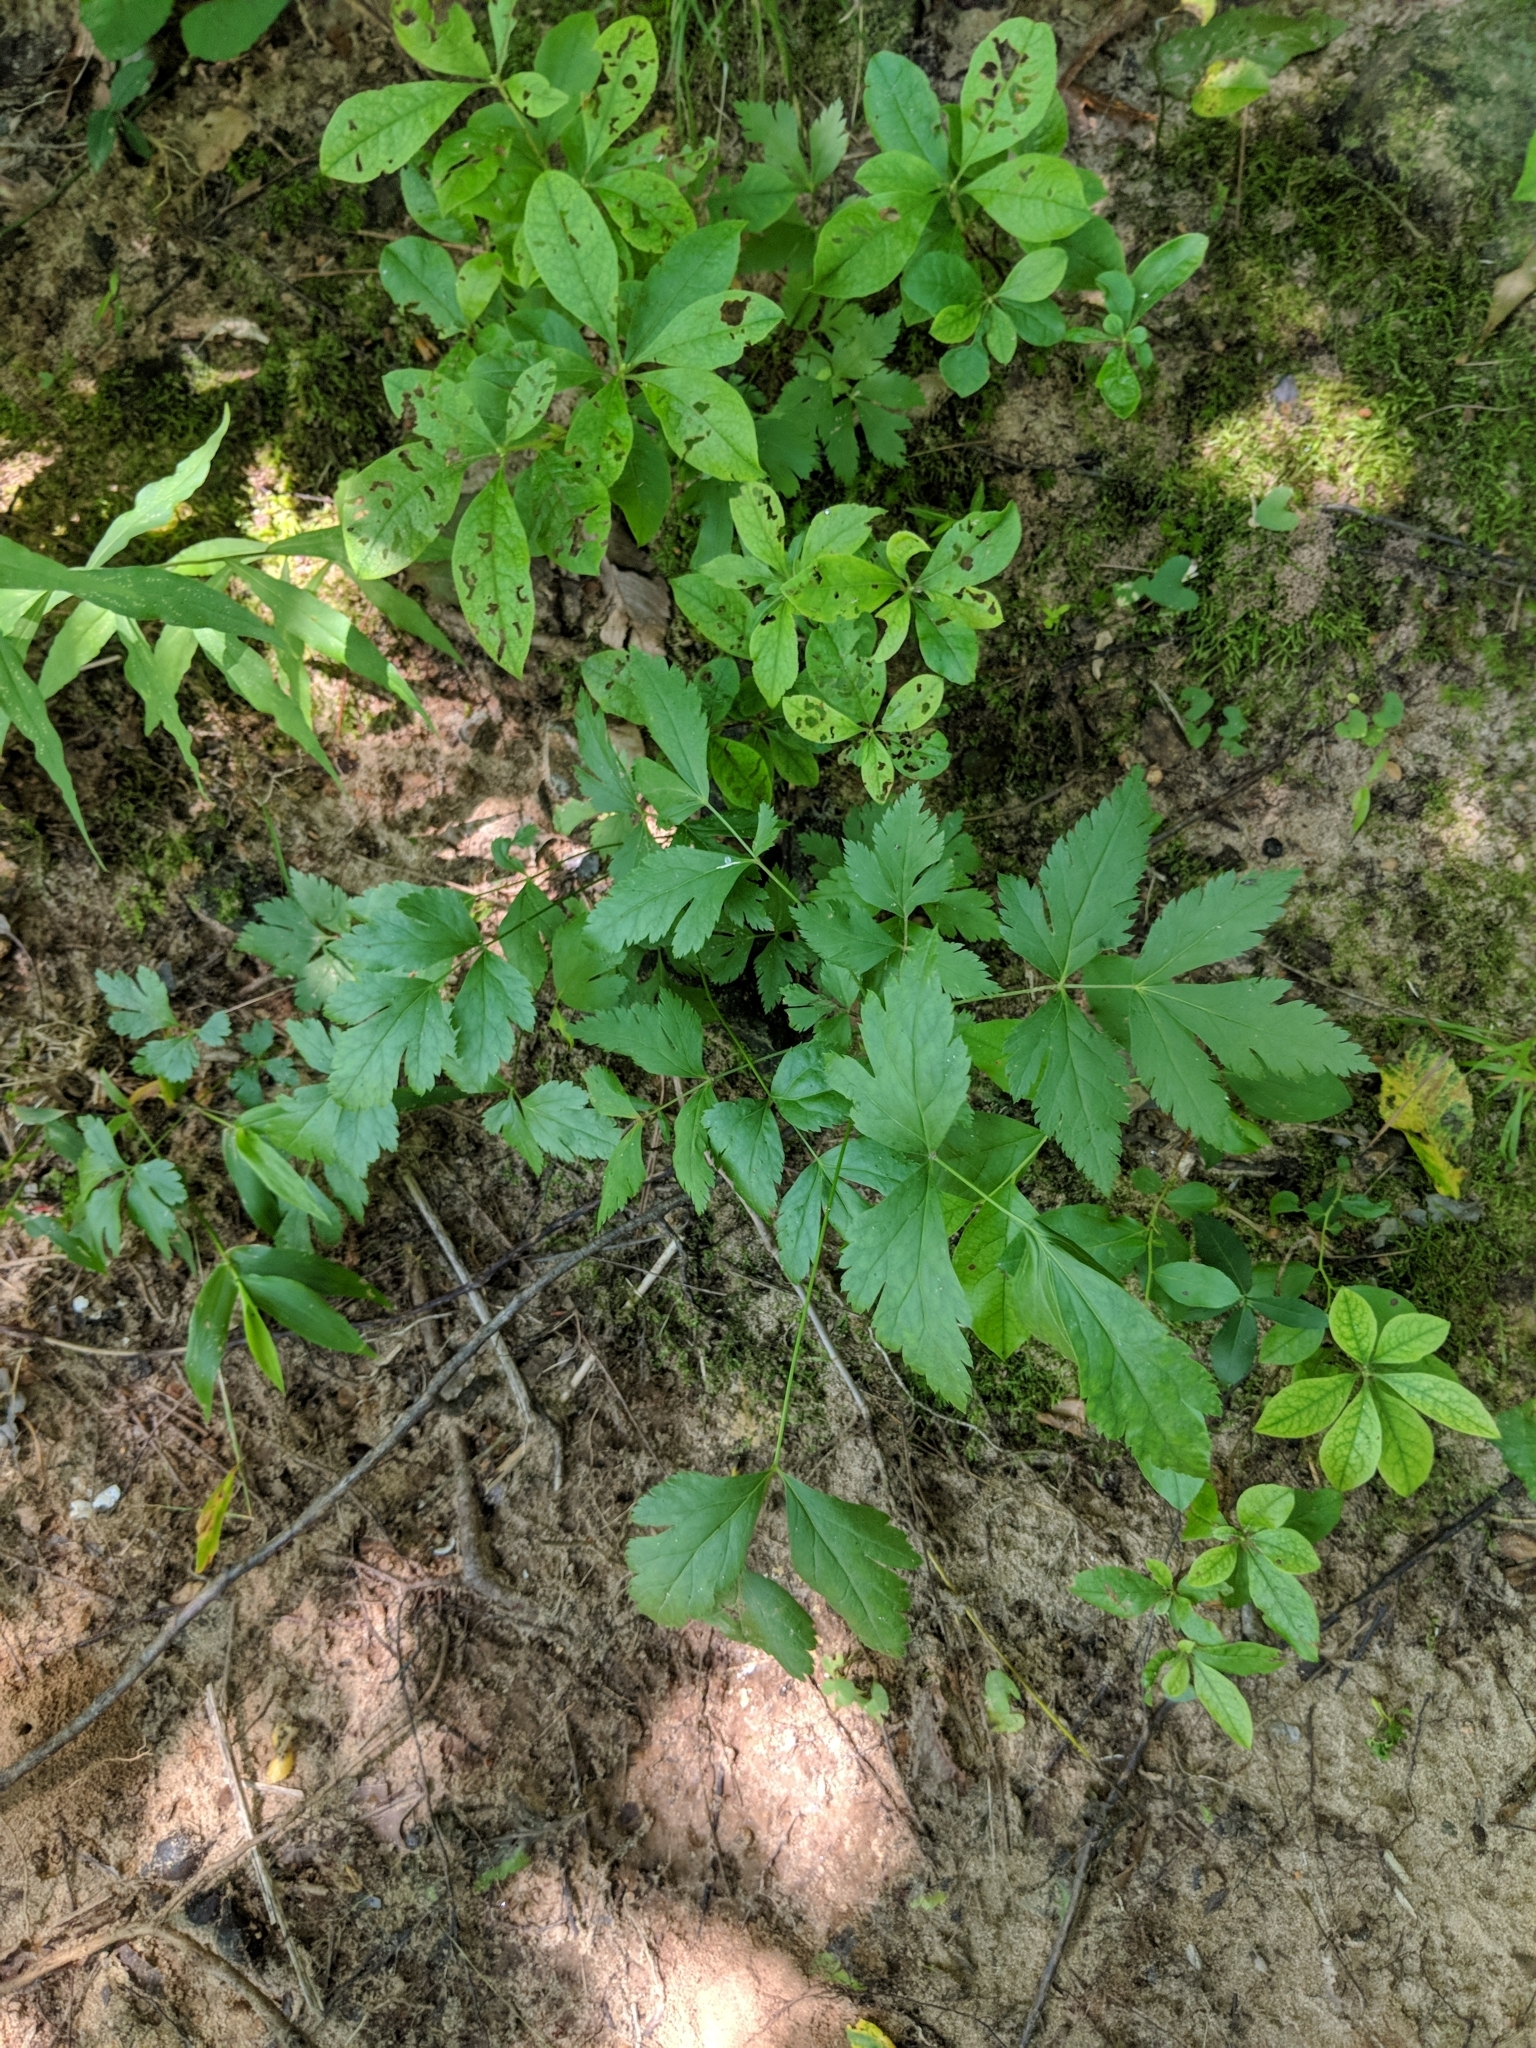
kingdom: Plantae
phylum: Tracheophyta
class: Magnoliopsida
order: Ranunculales
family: Ranunculaceae
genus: Xanthorhiza
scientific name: Xanthorhiza simplicissima
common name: Yellowroot
